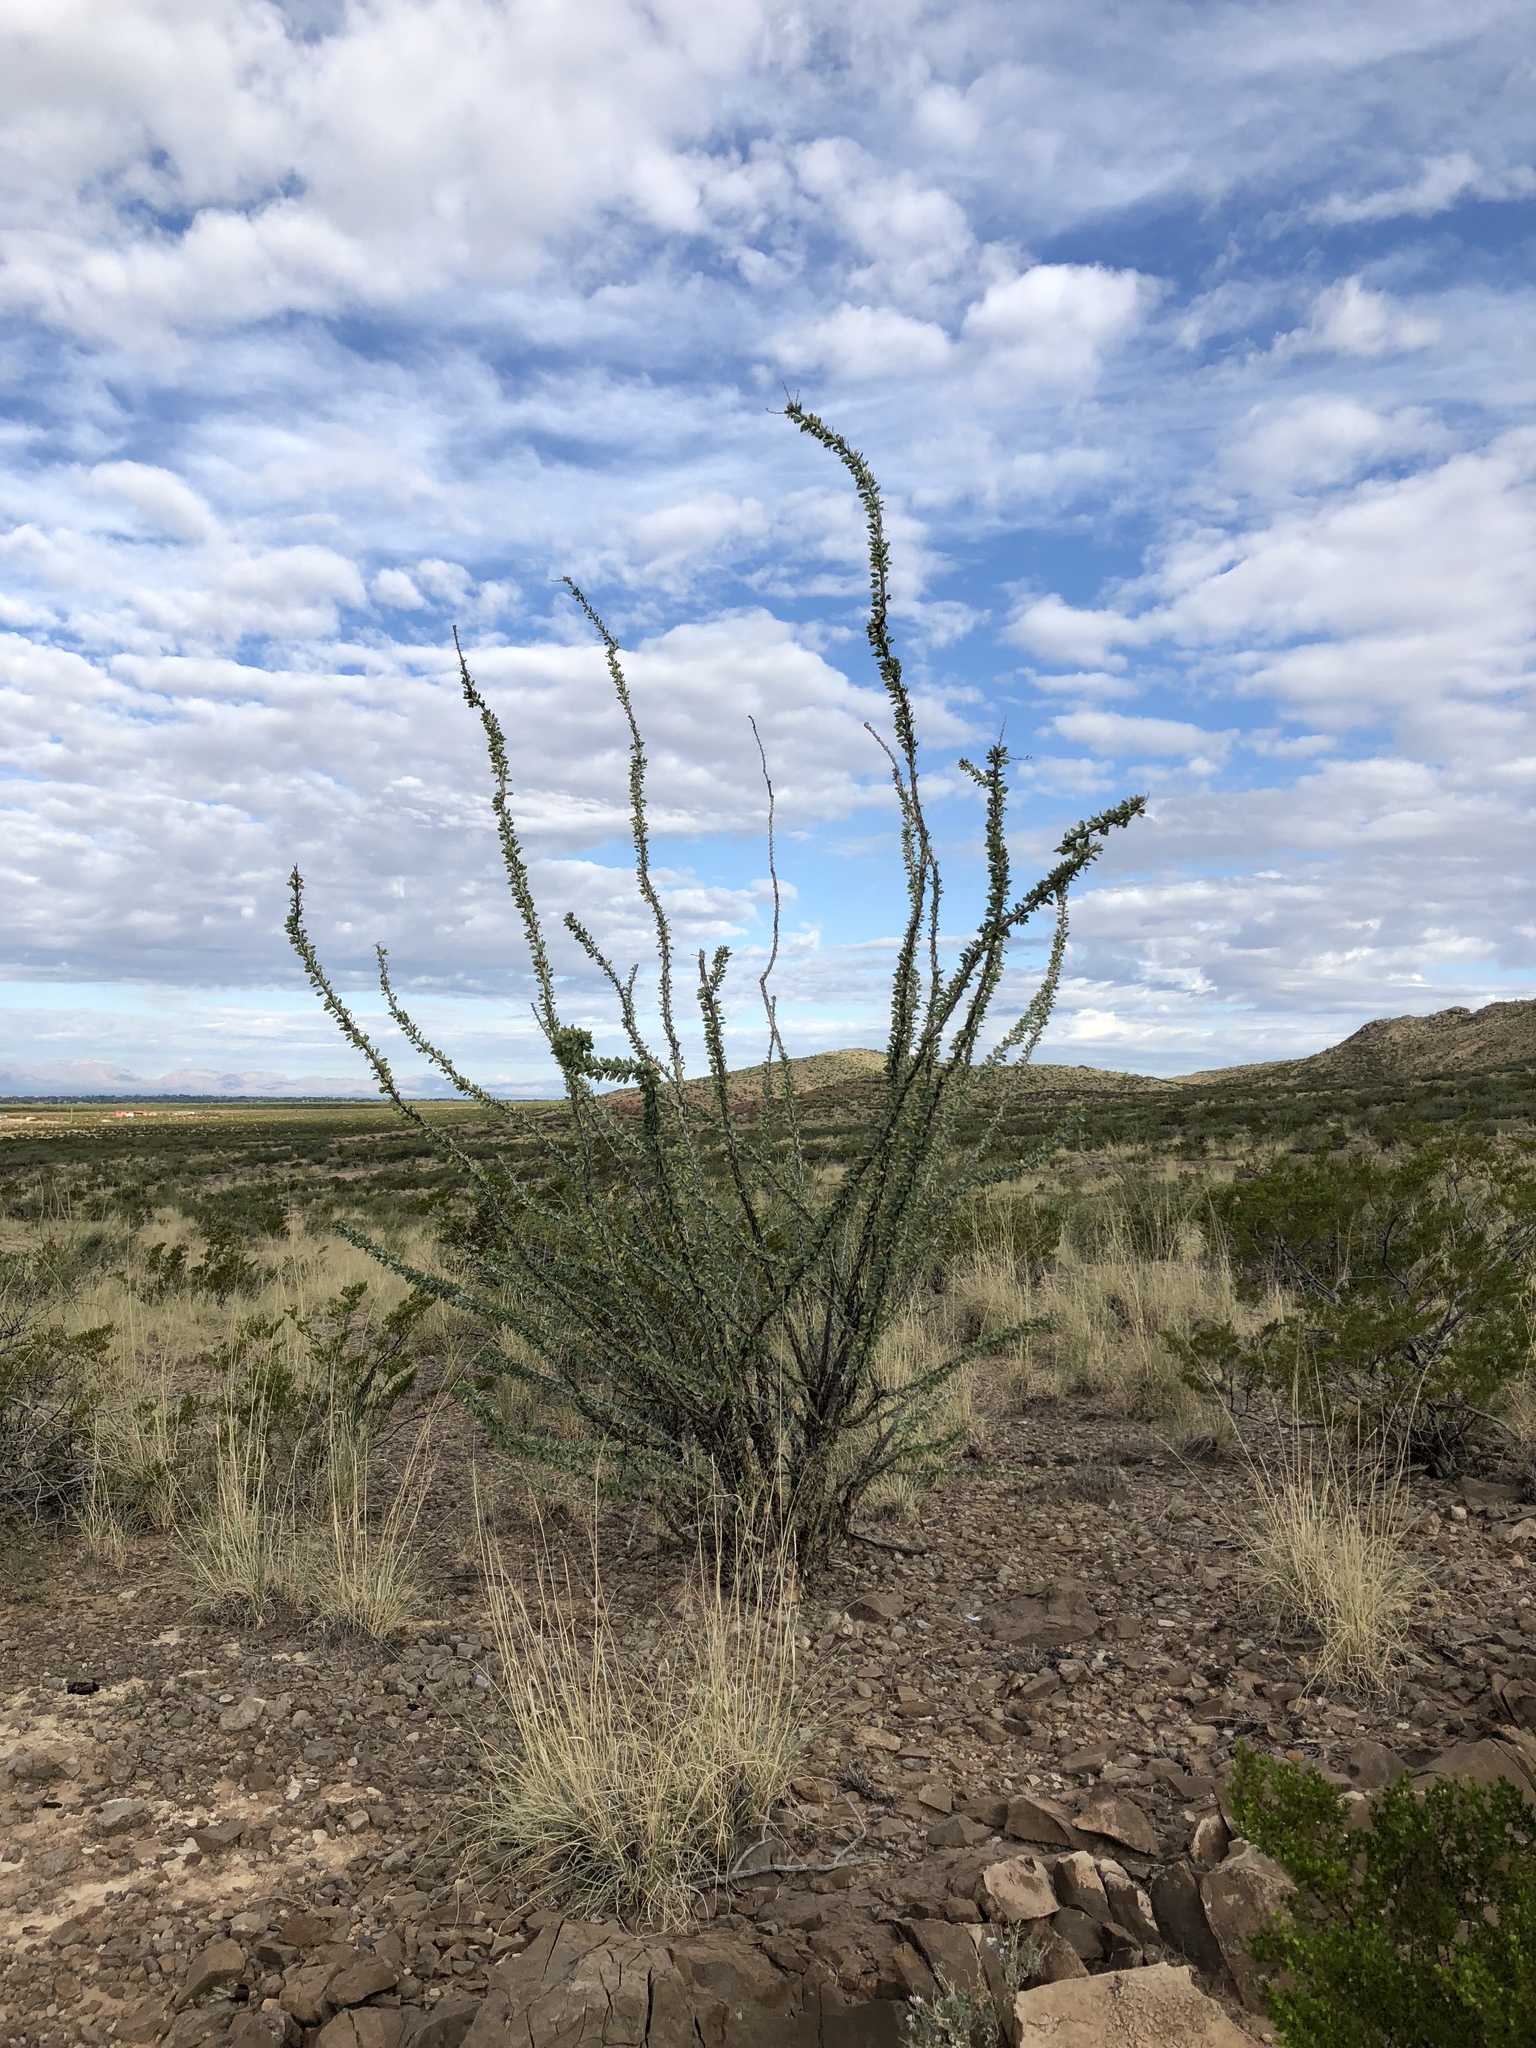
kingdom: Plantae
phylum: Tracheophyta
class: Magnoliopsida
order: Ericales
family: Fouquieriaceae
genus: Fouquieria
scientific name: Fouquieria splendens
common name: Vine-cactus
